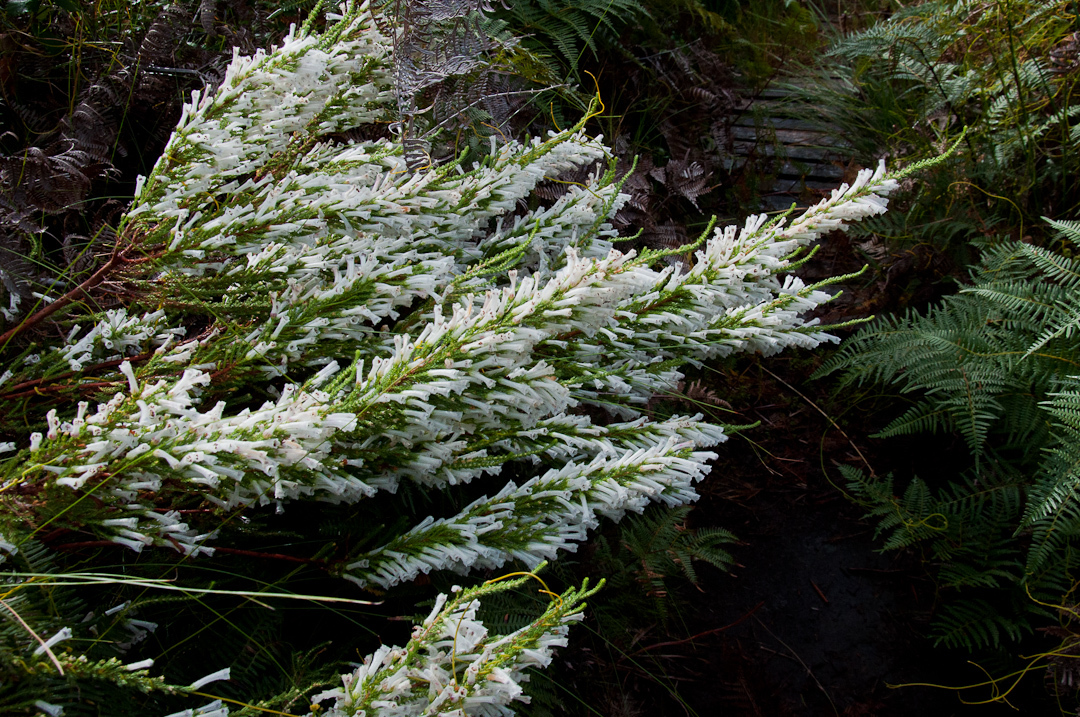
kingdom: Plantae
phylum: Tracheophyta
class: Magnoliopsida
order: Ericales
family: Ericaceae
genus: Erica
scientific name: Erica perspicua
